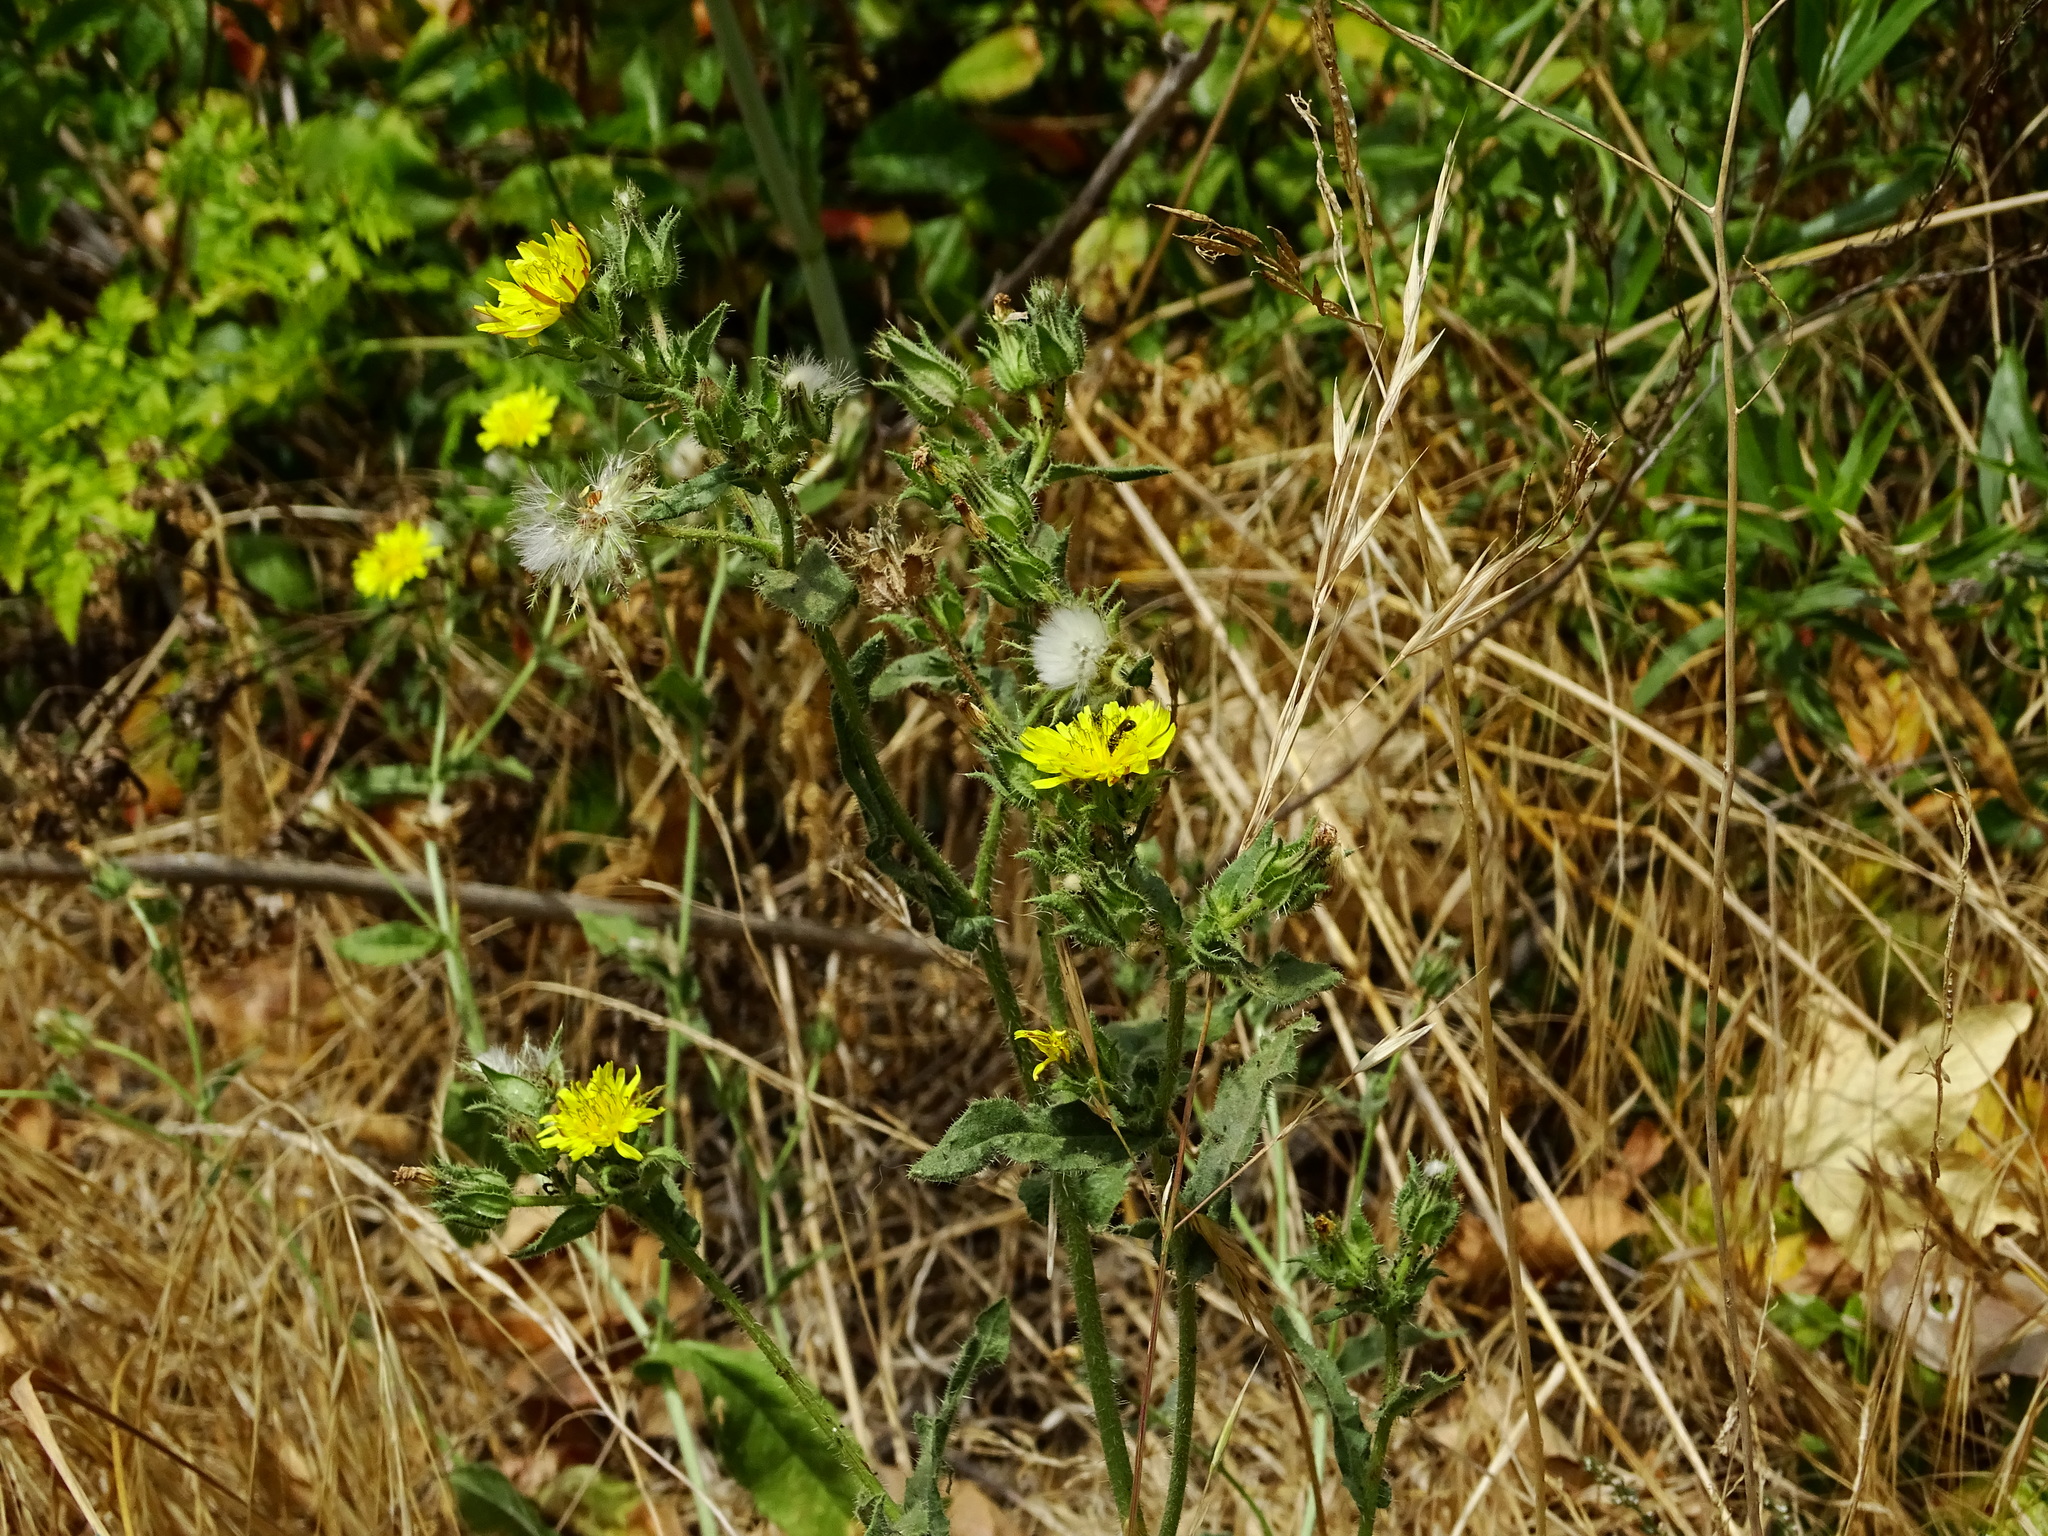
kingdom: Plantae
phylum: Tracheophyta
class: Magnoliopsida
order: Asterales
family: Asteraceae
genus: Helminthotheca
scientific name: Helminthotheca echioides
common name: Ox-tongue
